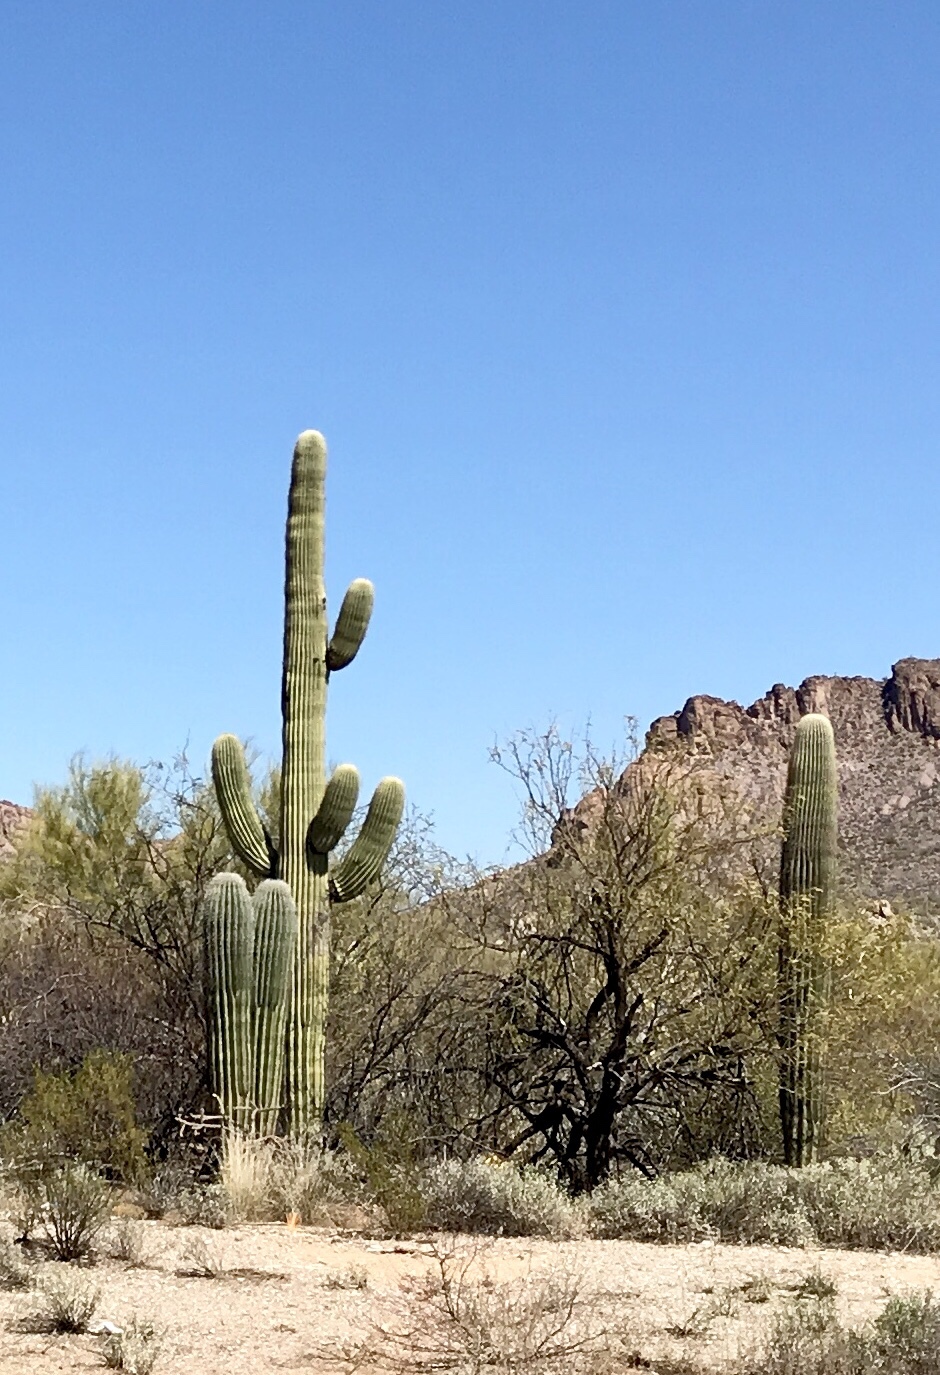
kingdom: Plantae
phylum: Tracheophyta
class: Magnoliopsida
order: Caryophyllales
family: Cactaceae
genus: Carnegiea
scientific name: Carnegiea gigantea
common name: Saguaro
